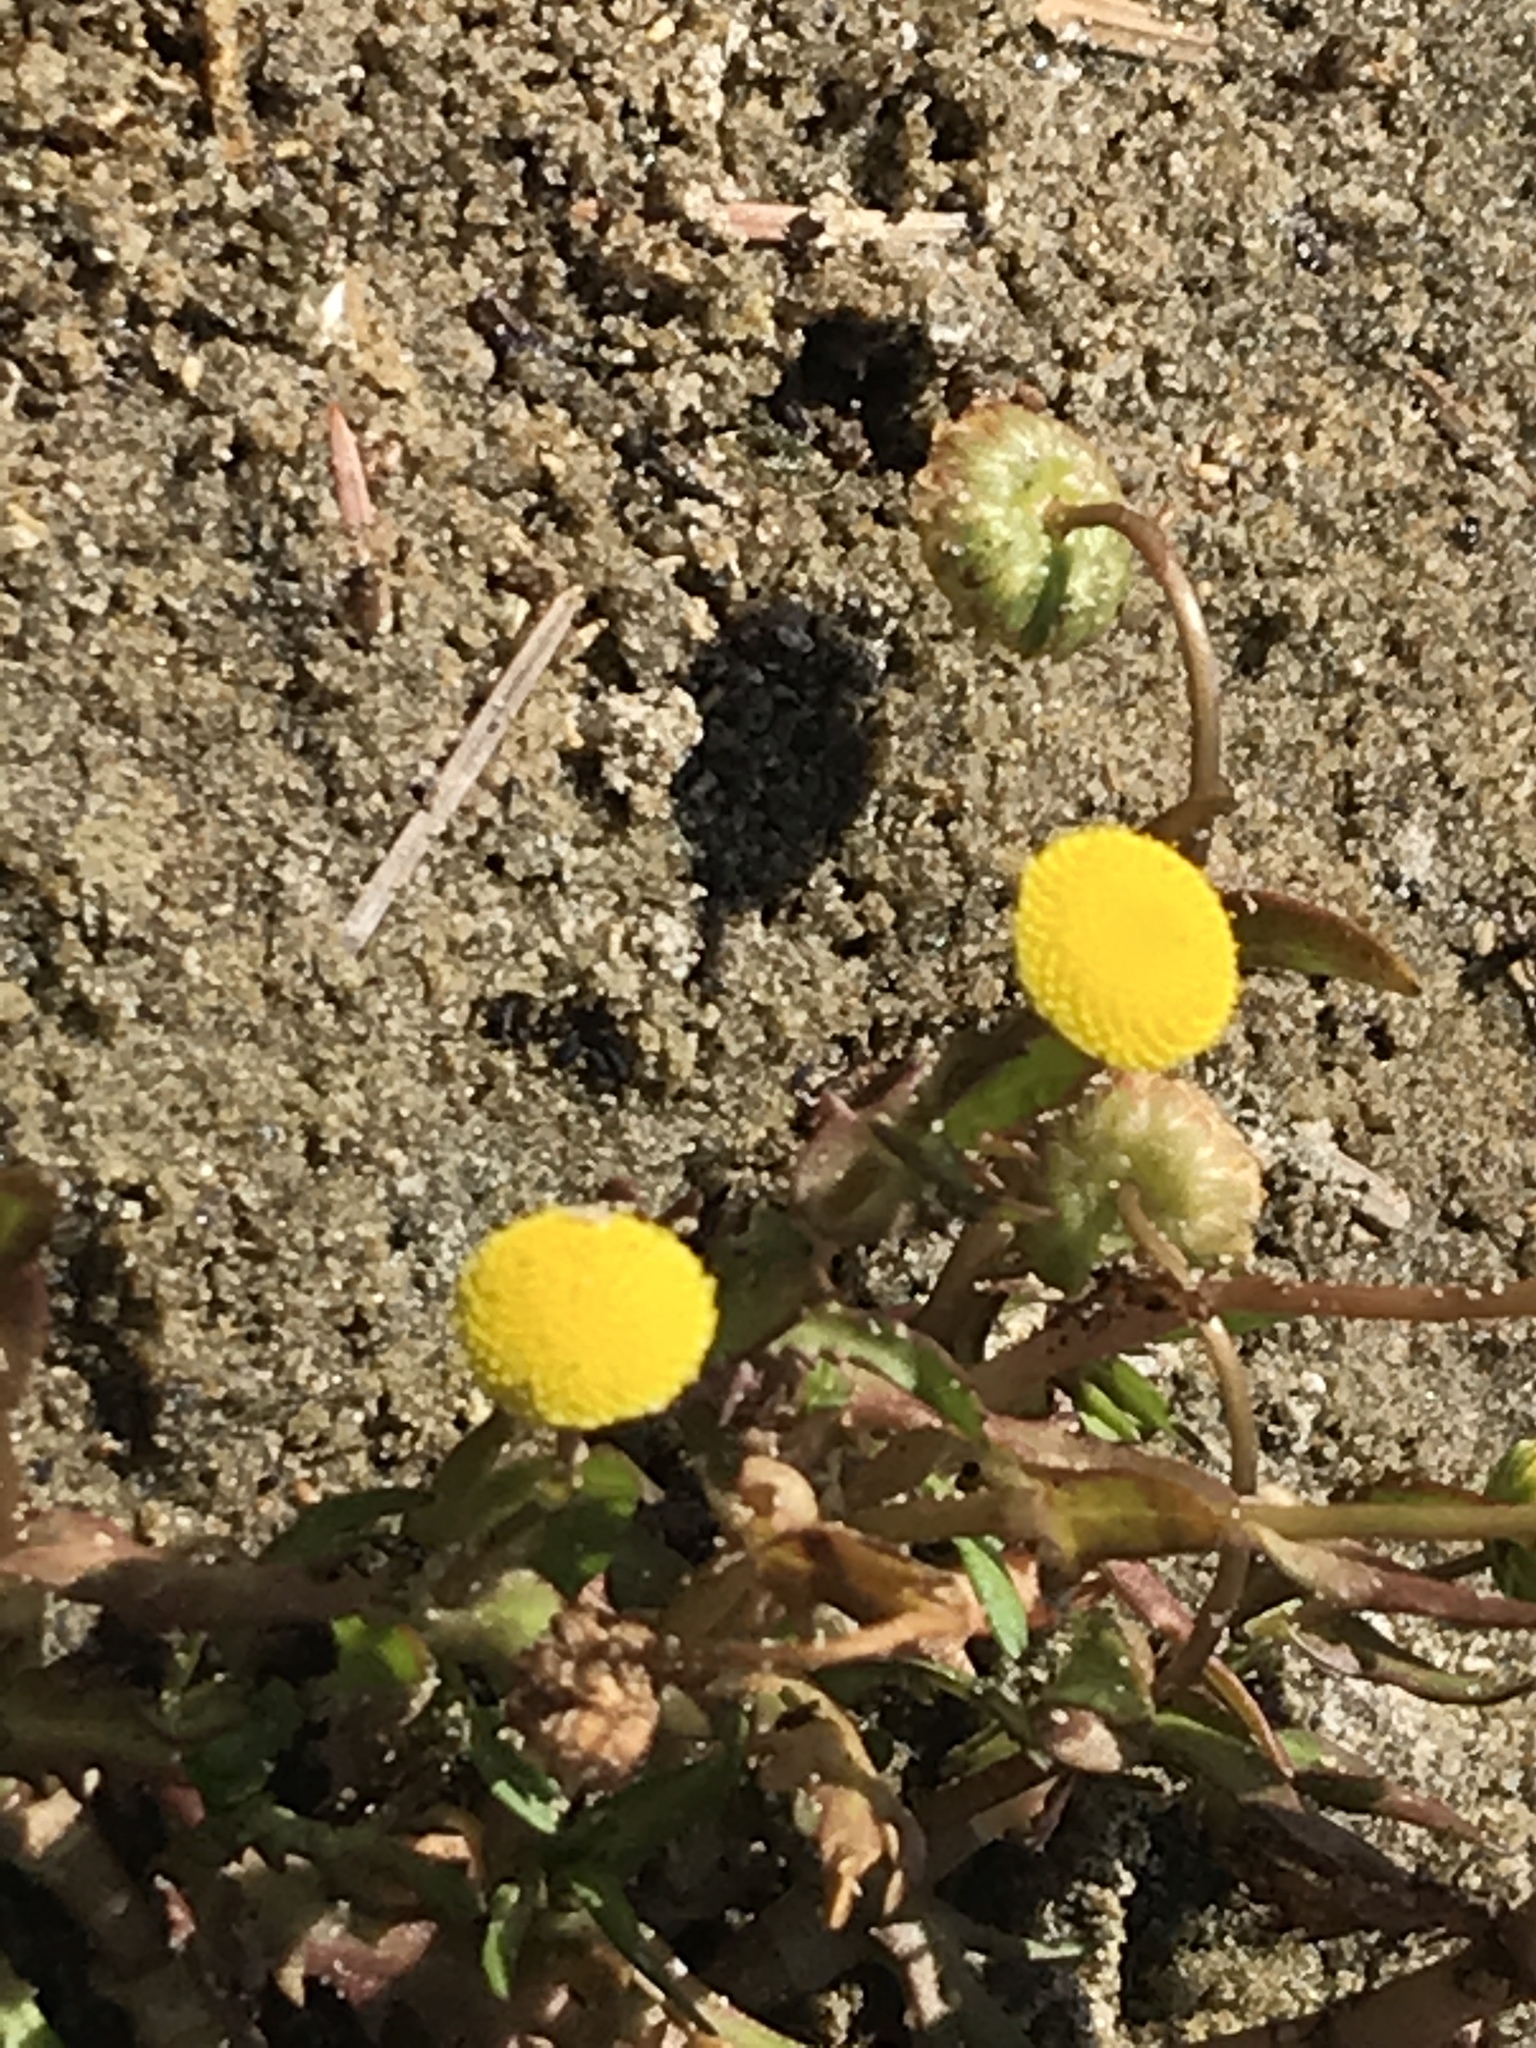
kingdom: Plantae
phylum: Tracheophyta
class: Magnoliopsida
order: Asterales
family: Asteraceae
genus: Cotula
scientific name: Cotula coronopifolia
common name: Buttonweed
